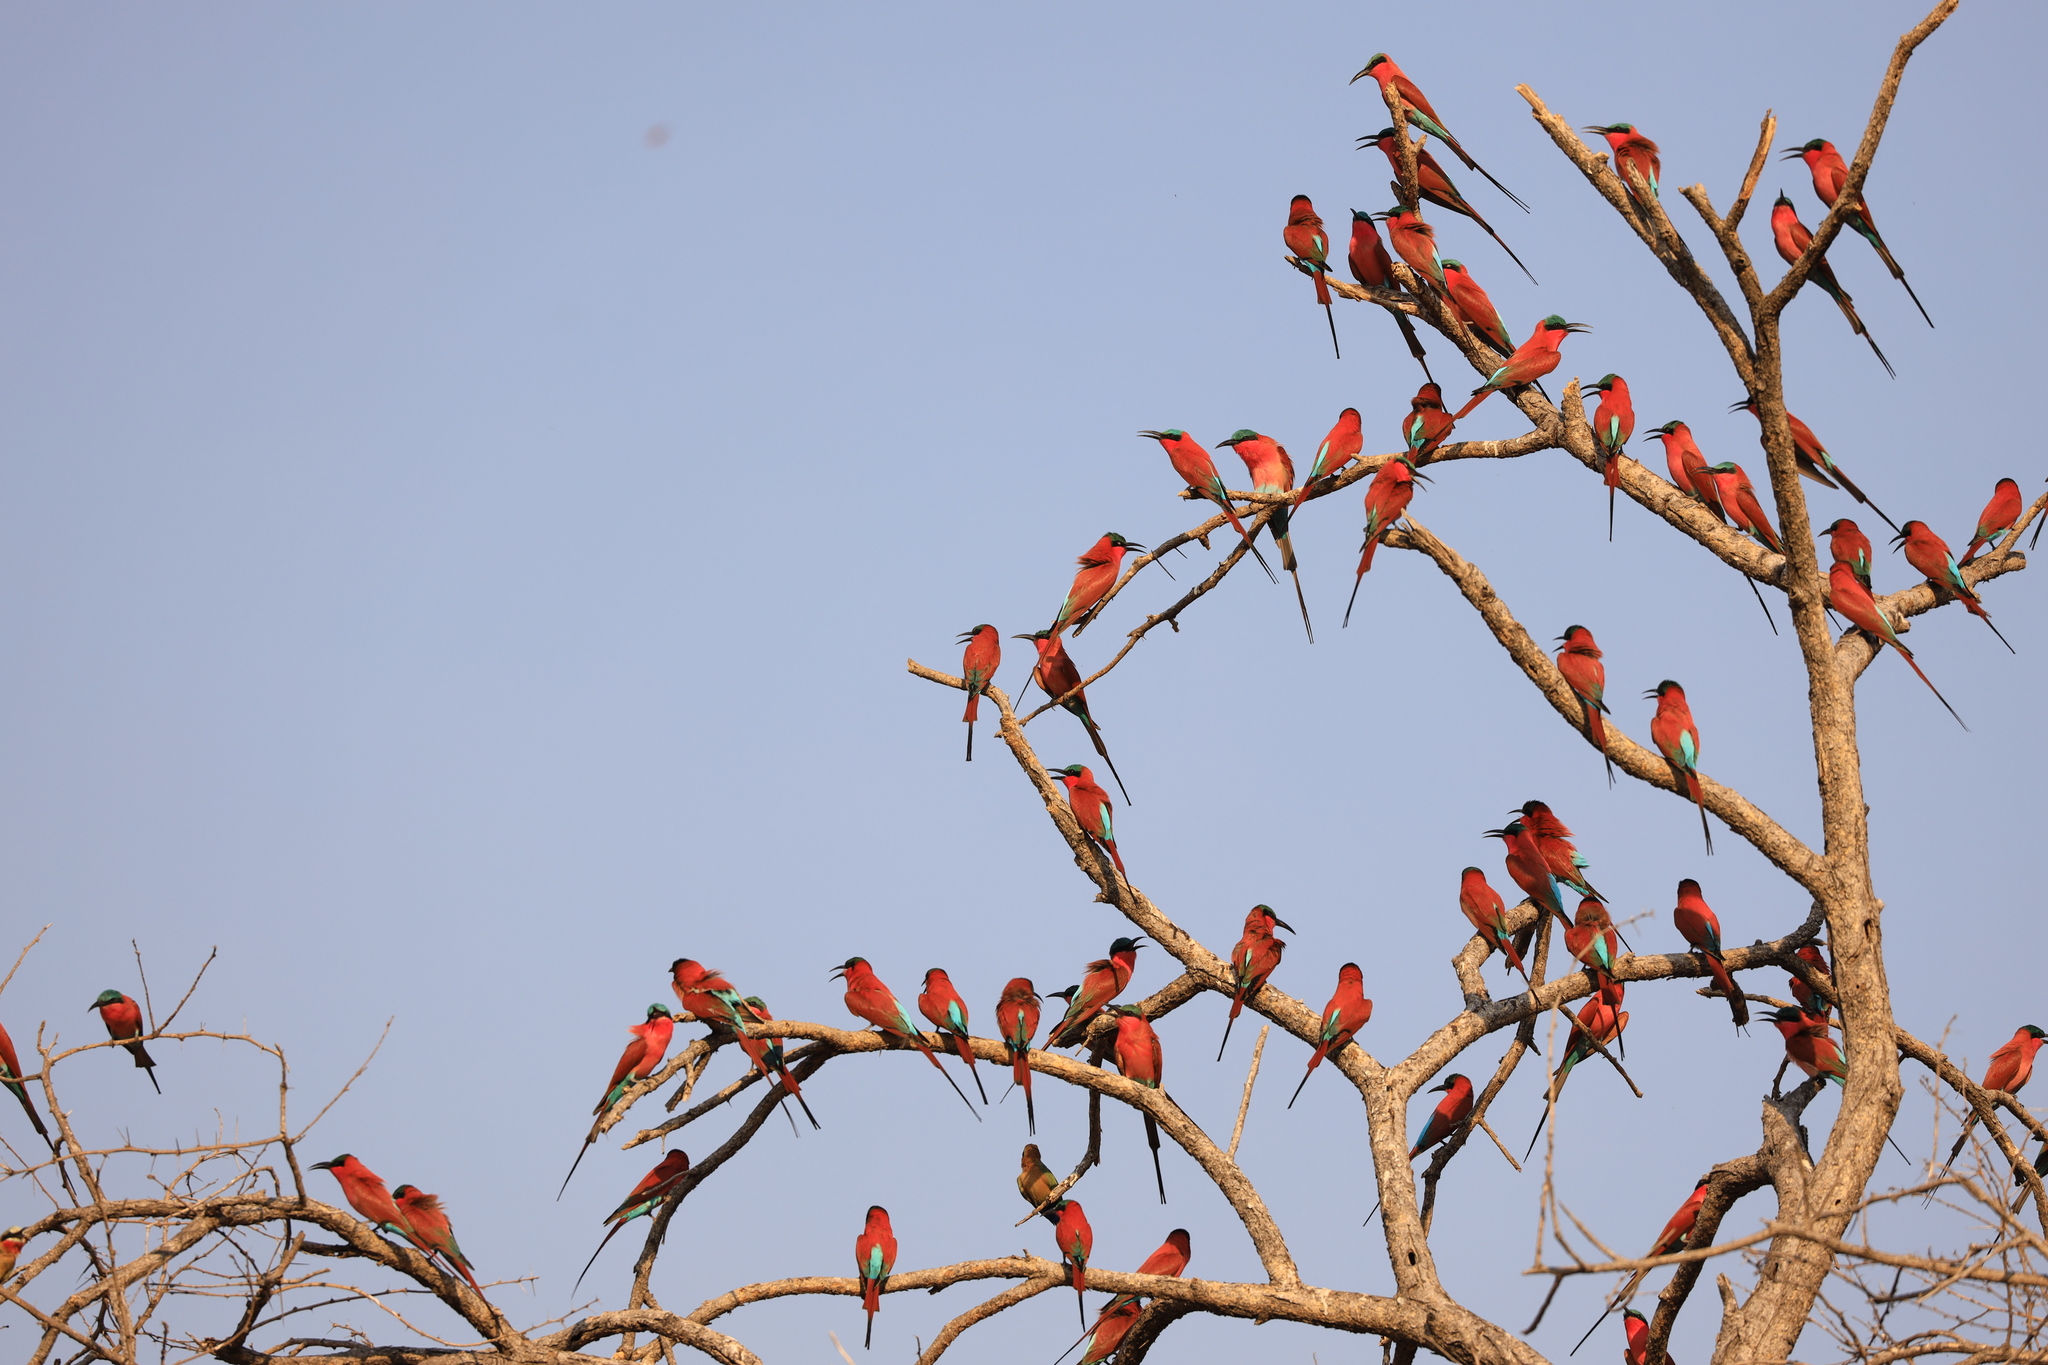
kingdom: Animalia
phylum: Chordata
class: Aves
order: Coraciiformes
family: Meropidae
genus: Merops
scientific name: Merops nubicoides
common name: Southern carmine bee-eater
